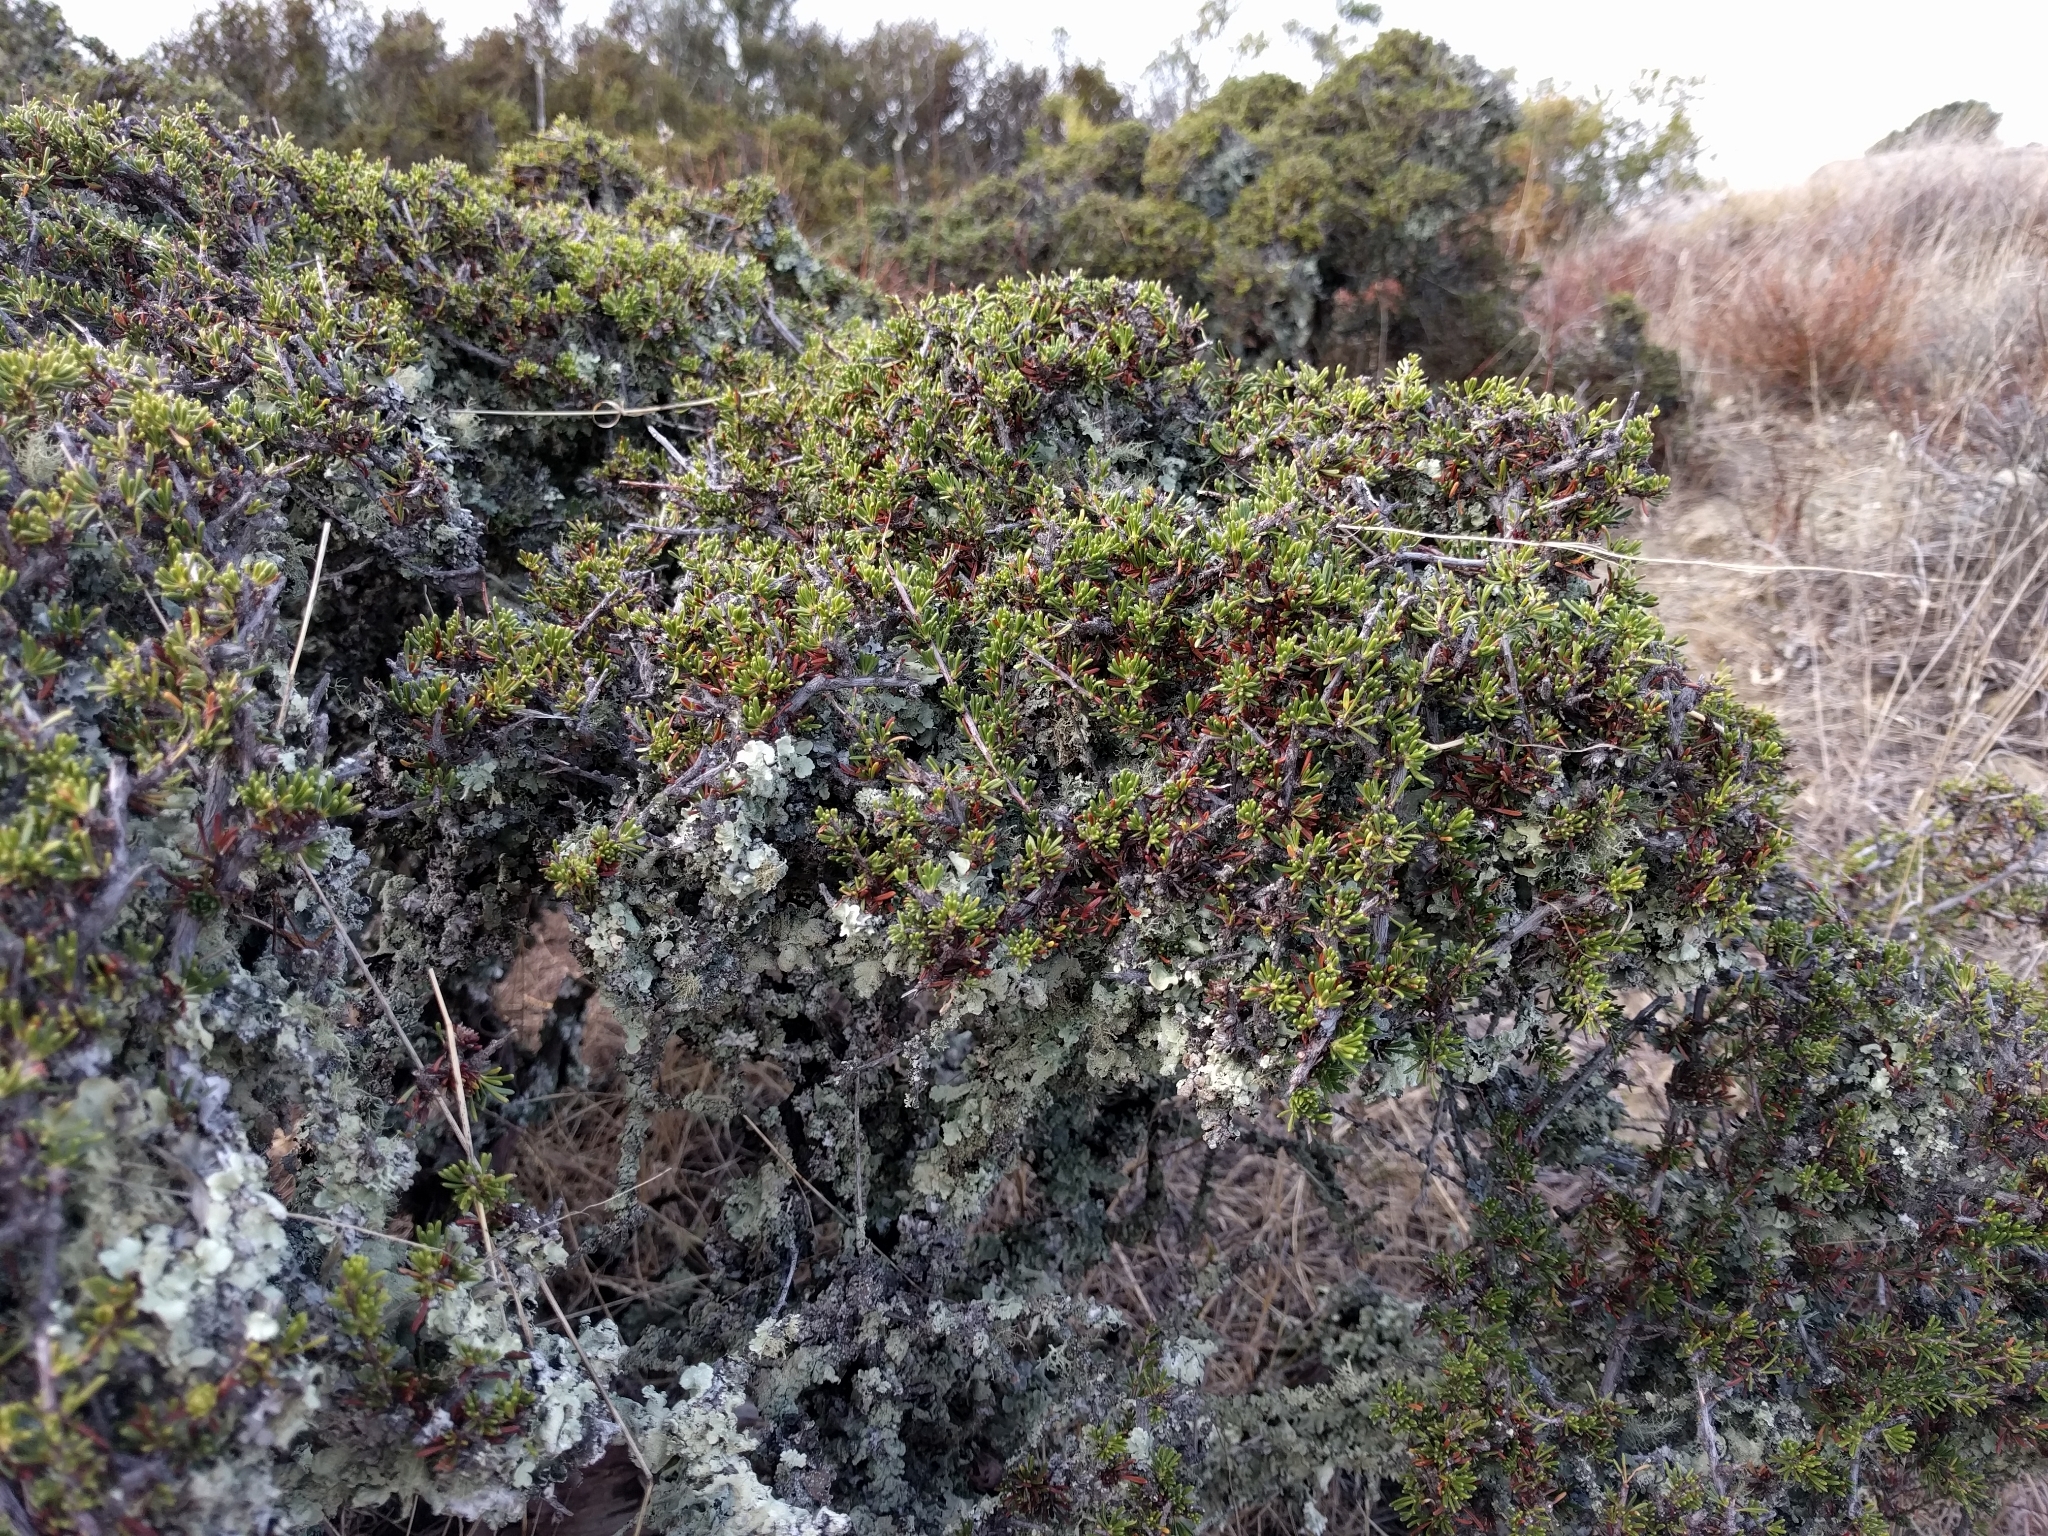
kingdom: Plantae
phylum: Tracheophyta
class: Magnoliopsida
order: Rosales
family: Rosaceae
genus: Adenostoma
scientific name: Adenostoma fasciculatum
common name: Chamise
